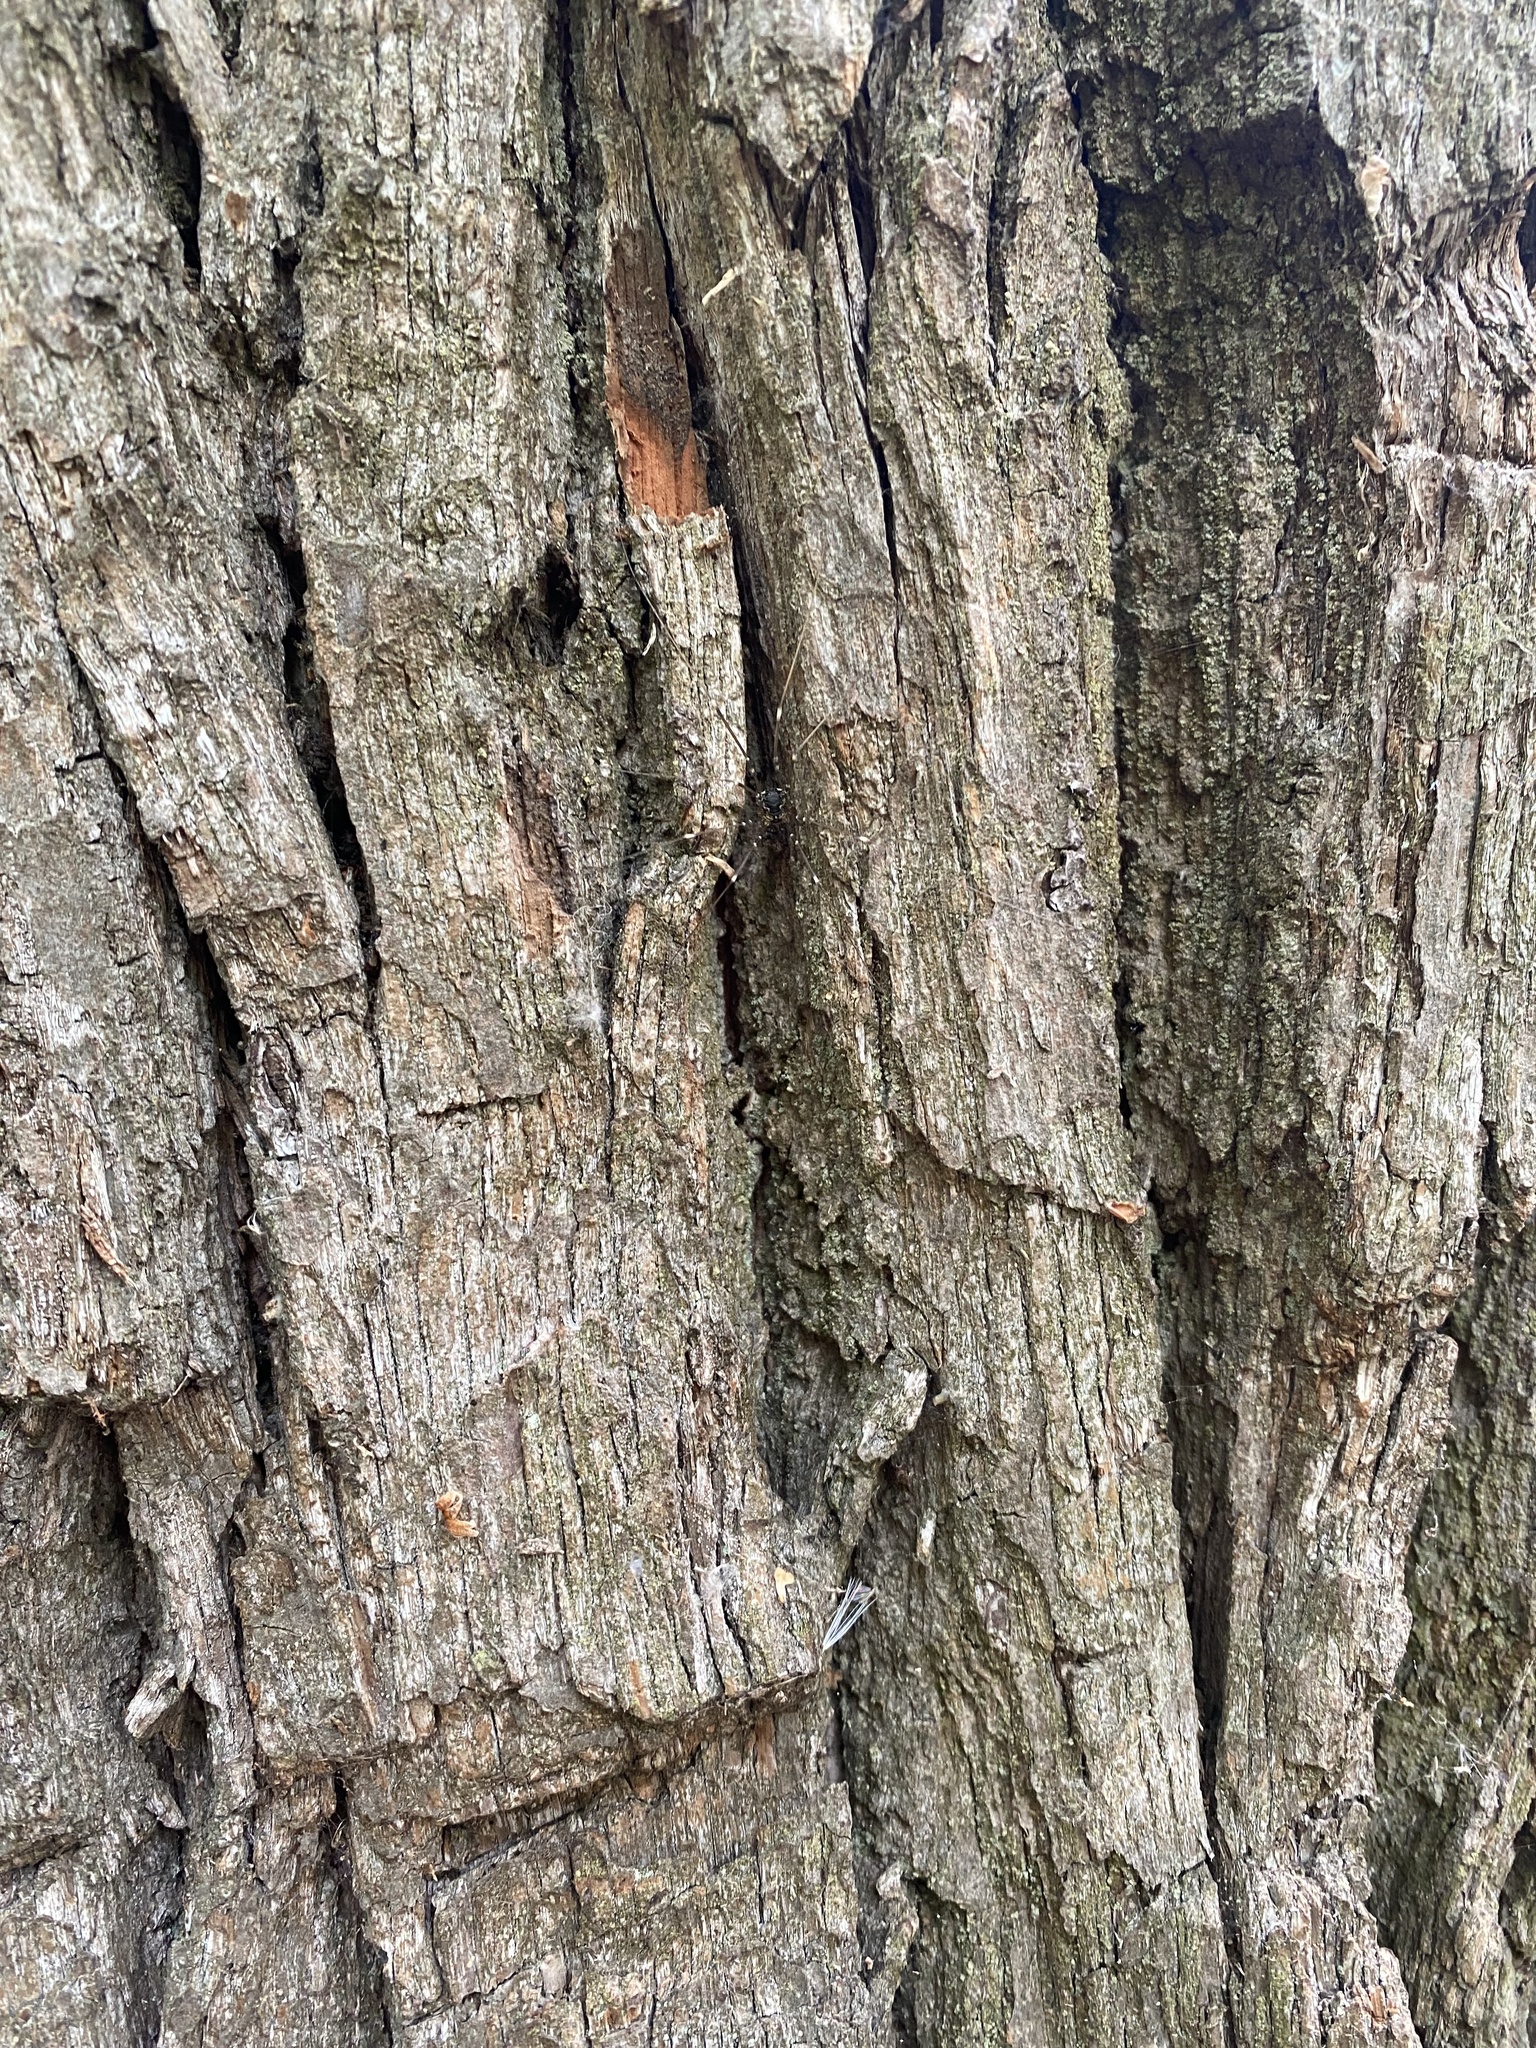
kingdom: Animalia
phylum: Arthropoda
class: Arachnida
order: Opiliones
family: Sclerosomatidae
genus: Leiobunum
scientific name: Leiobunum gracile
